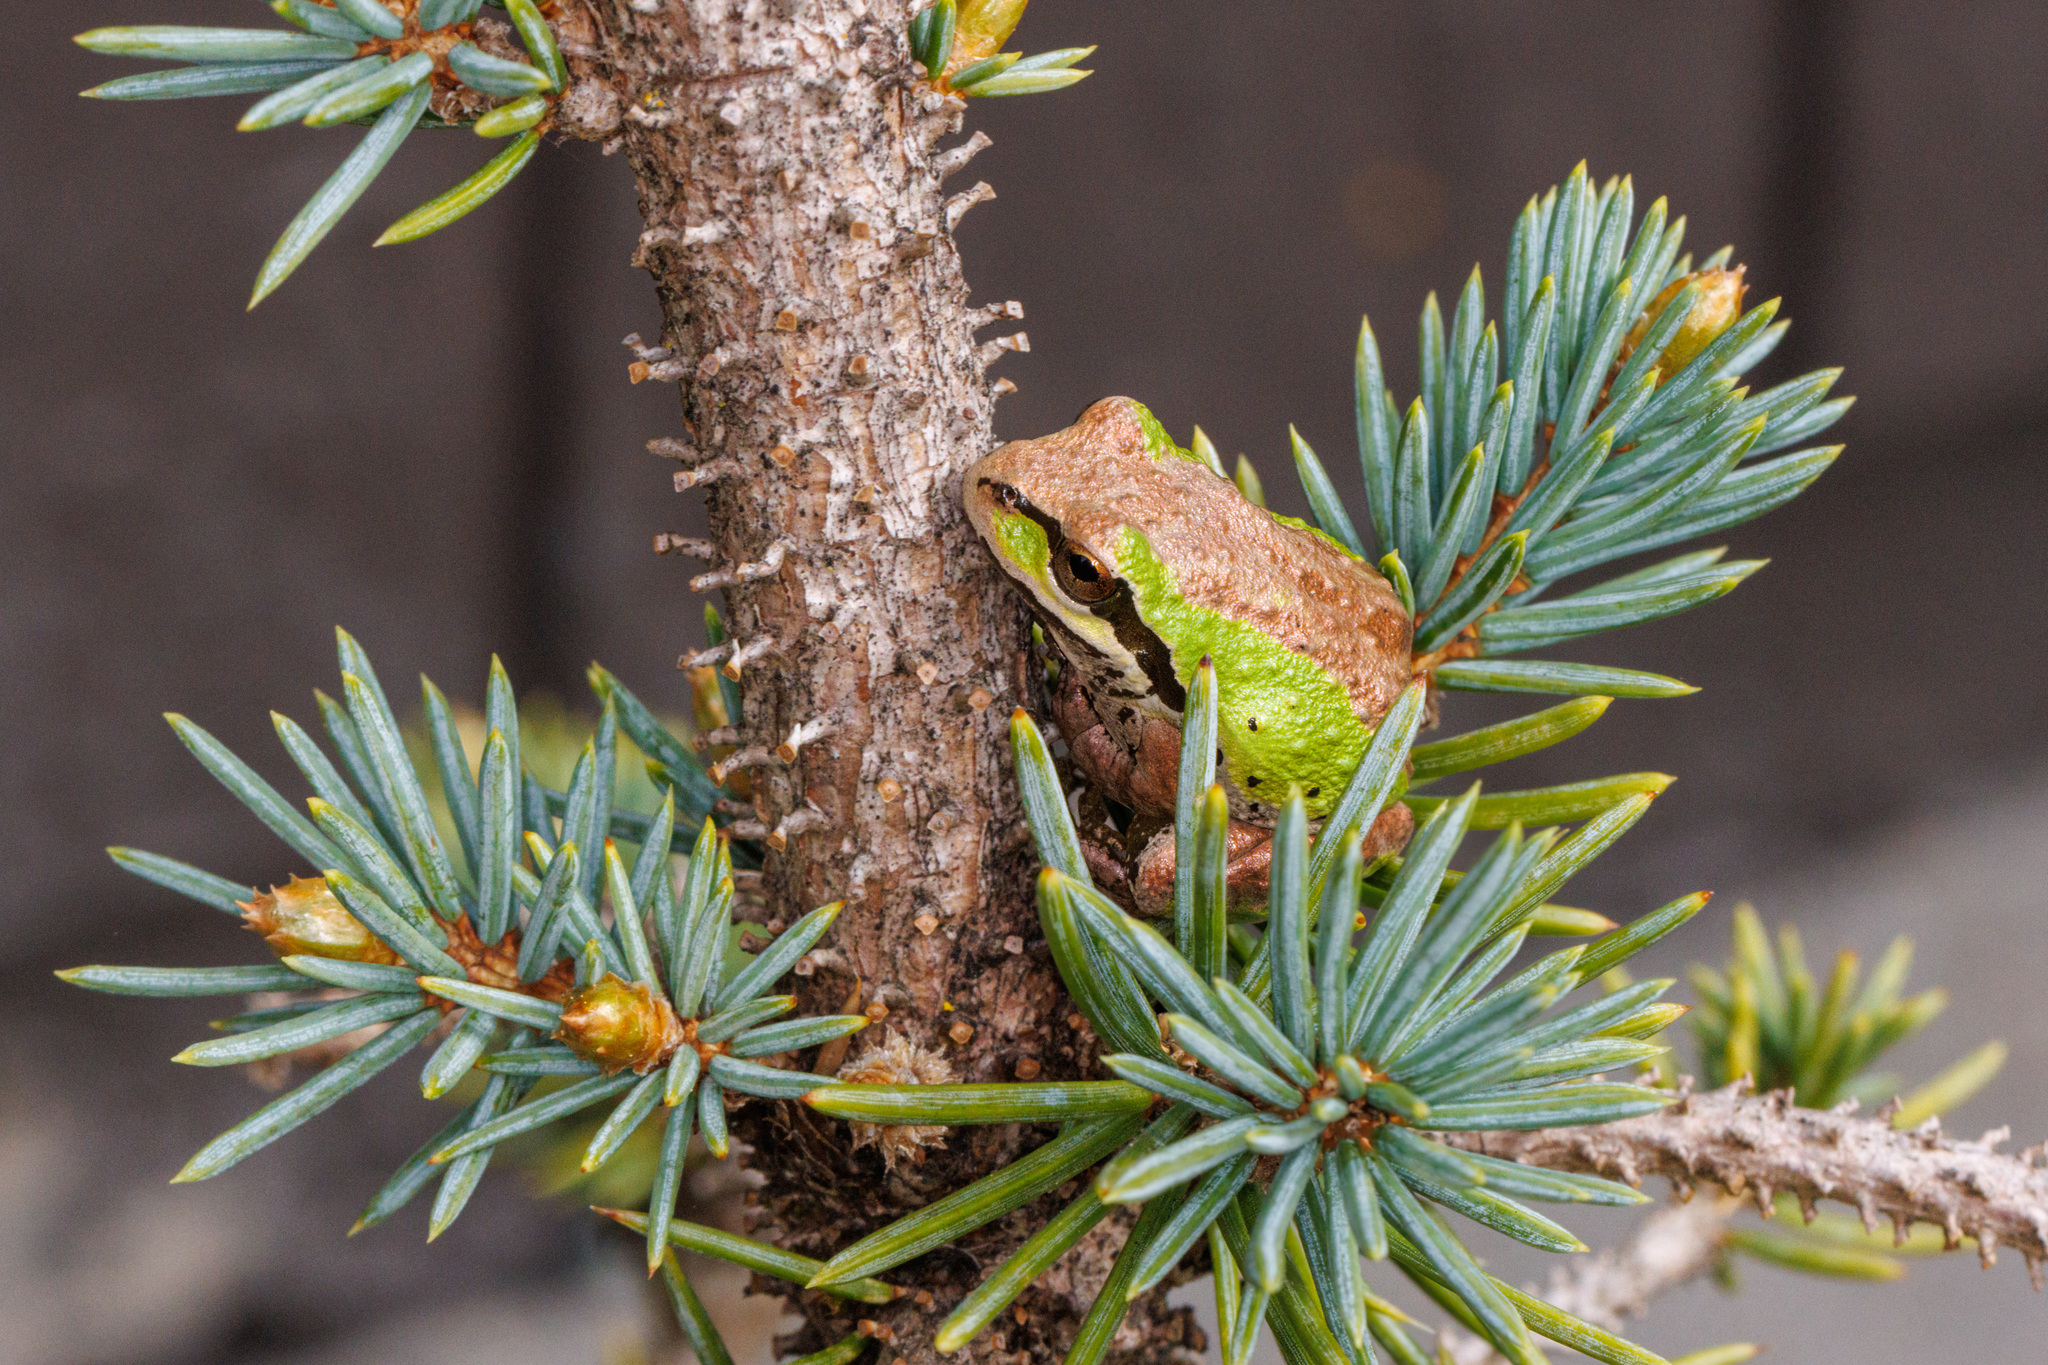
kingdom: Animalia
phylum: Chordata
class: Amphibia
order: Anura
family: Hylidae
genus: Pseudacris
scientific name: Pseudacris regilla
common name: Pacific chorus frog
